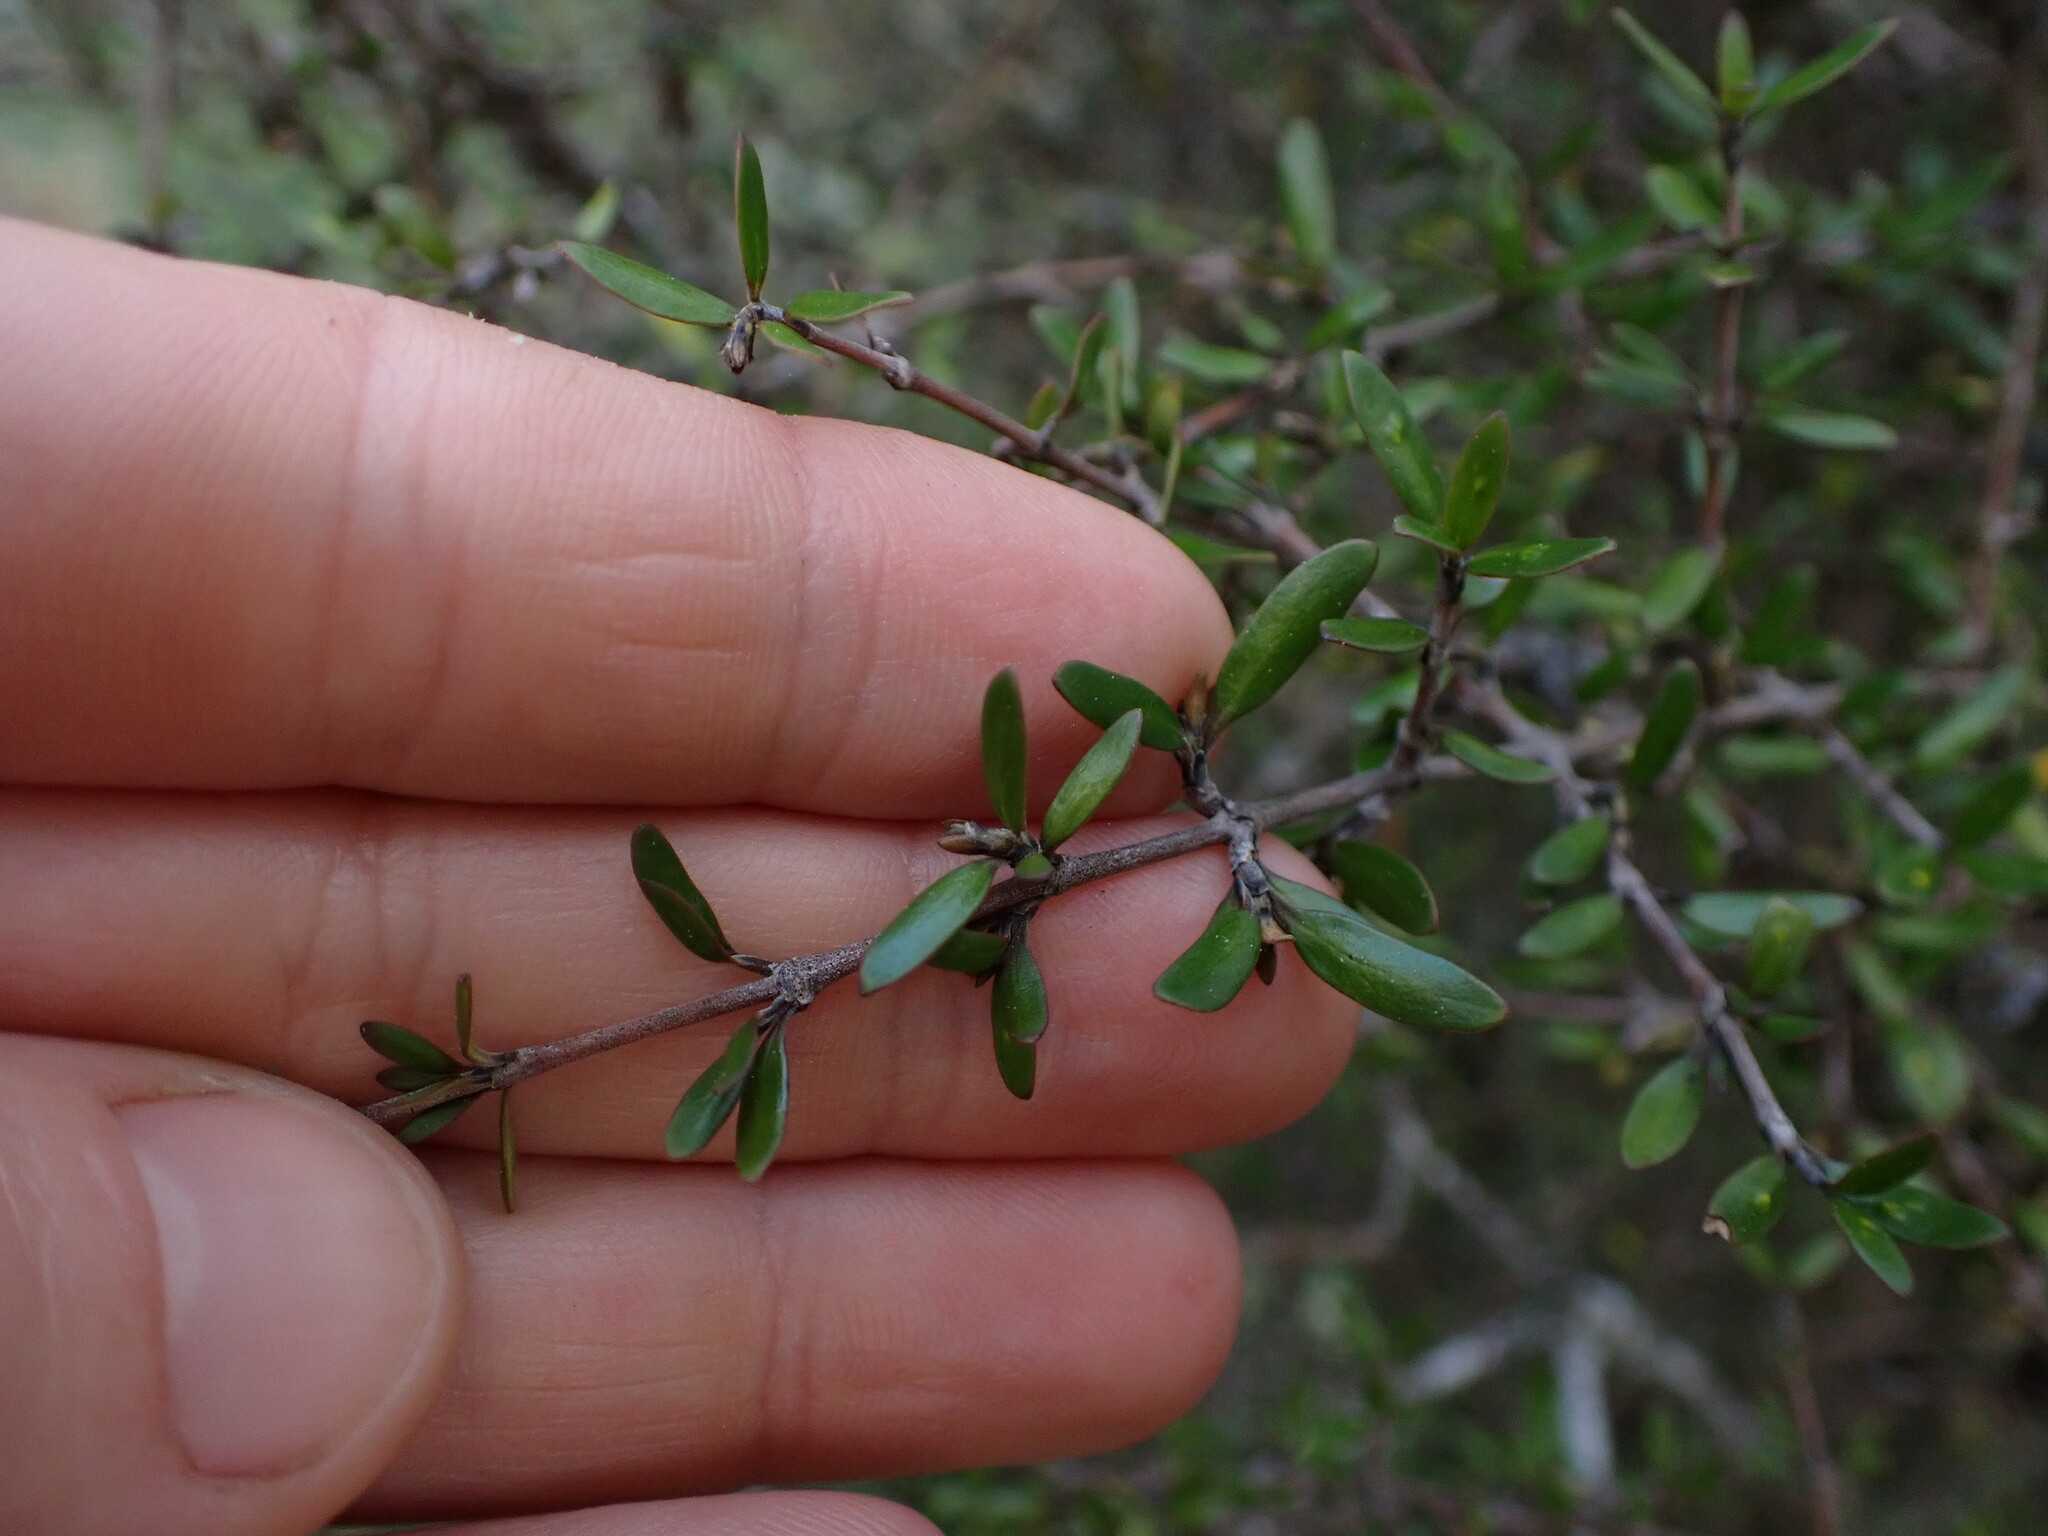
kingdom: Plantae
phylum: Tracheophyta
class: Magnoliopsida
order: Gentianales
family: Rubiaceae
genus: Coprosma
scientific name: Coprosma propinqua
